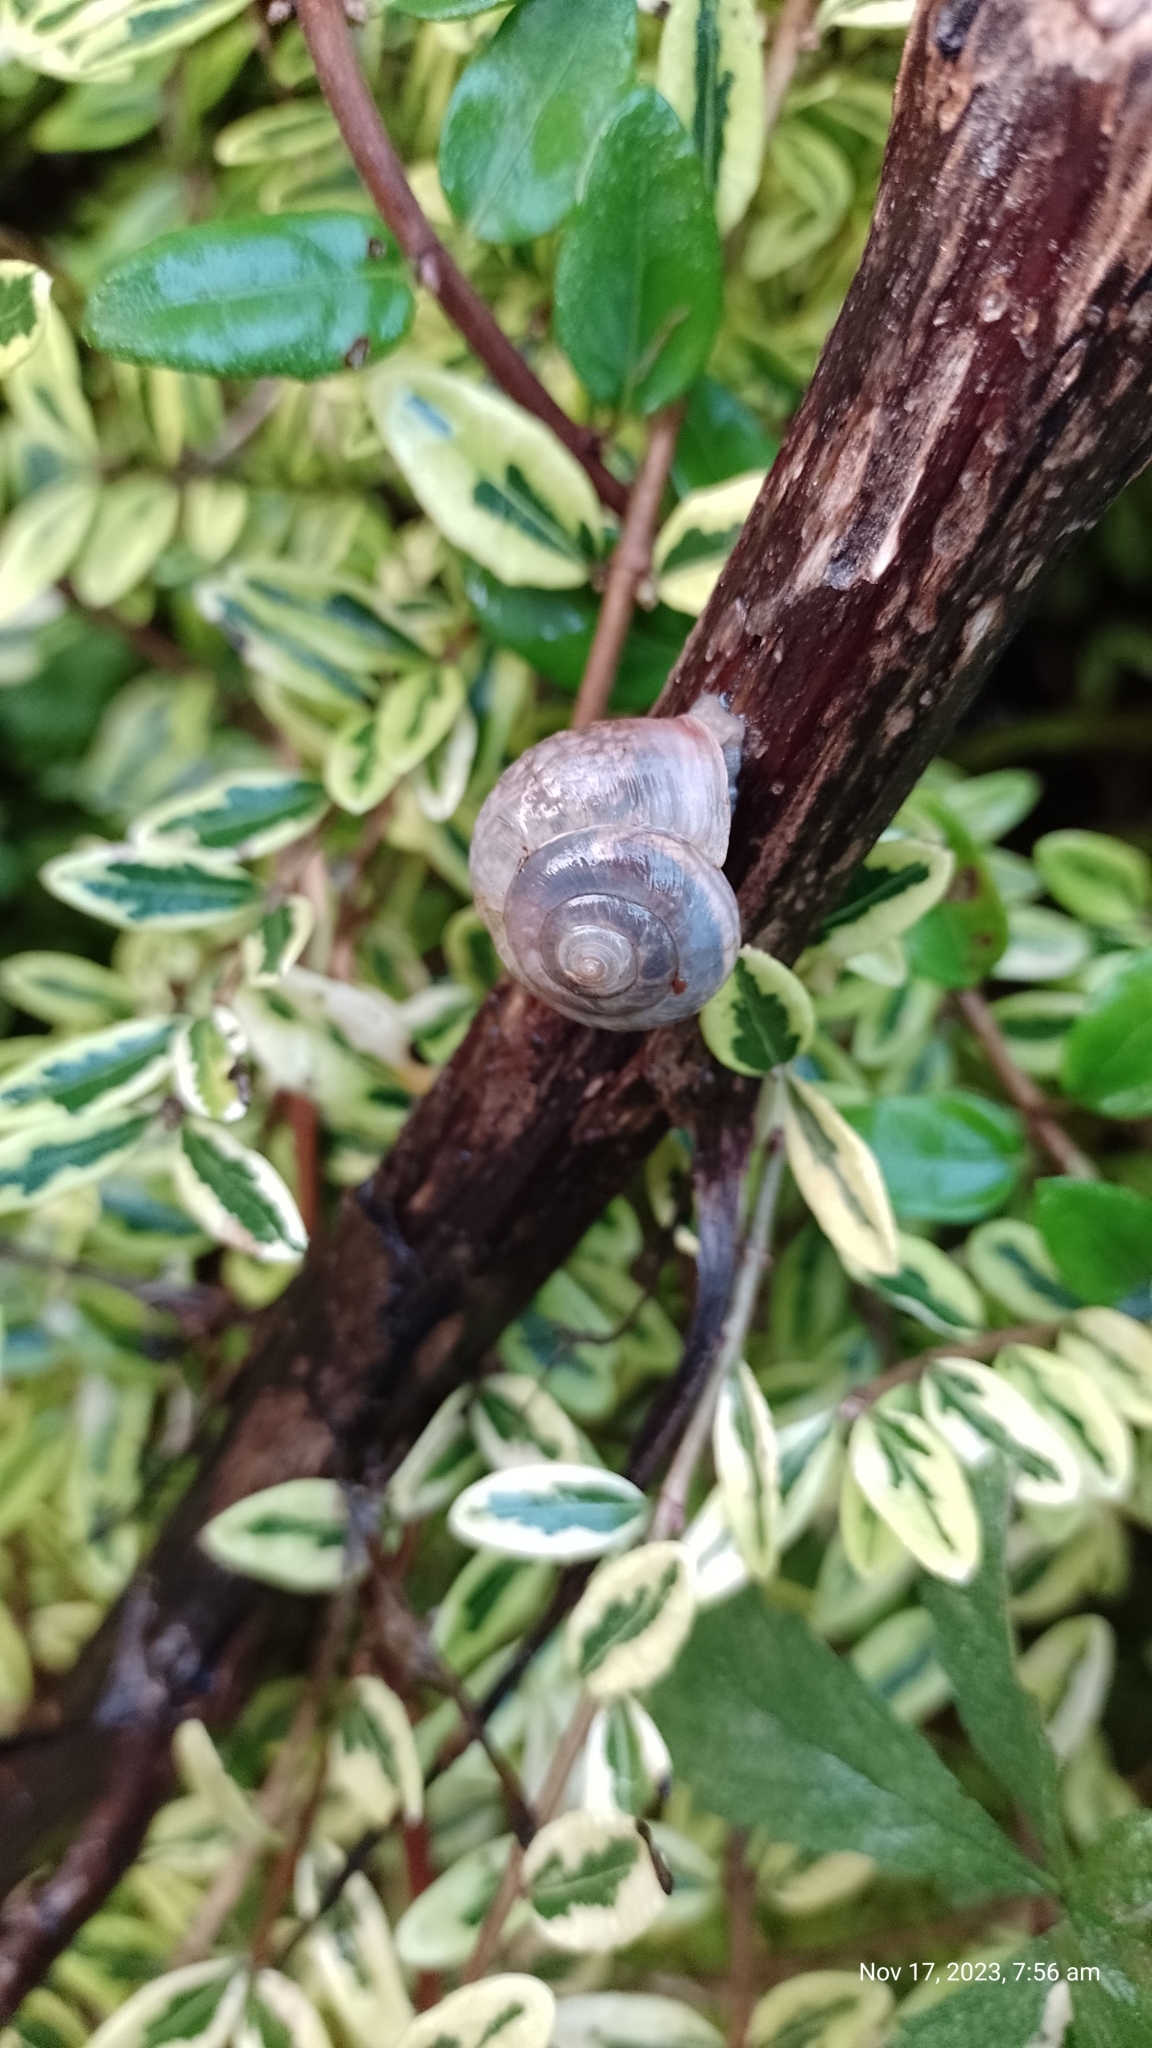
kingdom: Animalia
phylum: Mollusca
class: Gastropoda
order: Stylommatophora
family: Hygromiidae
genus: Monacha
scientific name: Monacha cantiana
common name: Kentish snail
